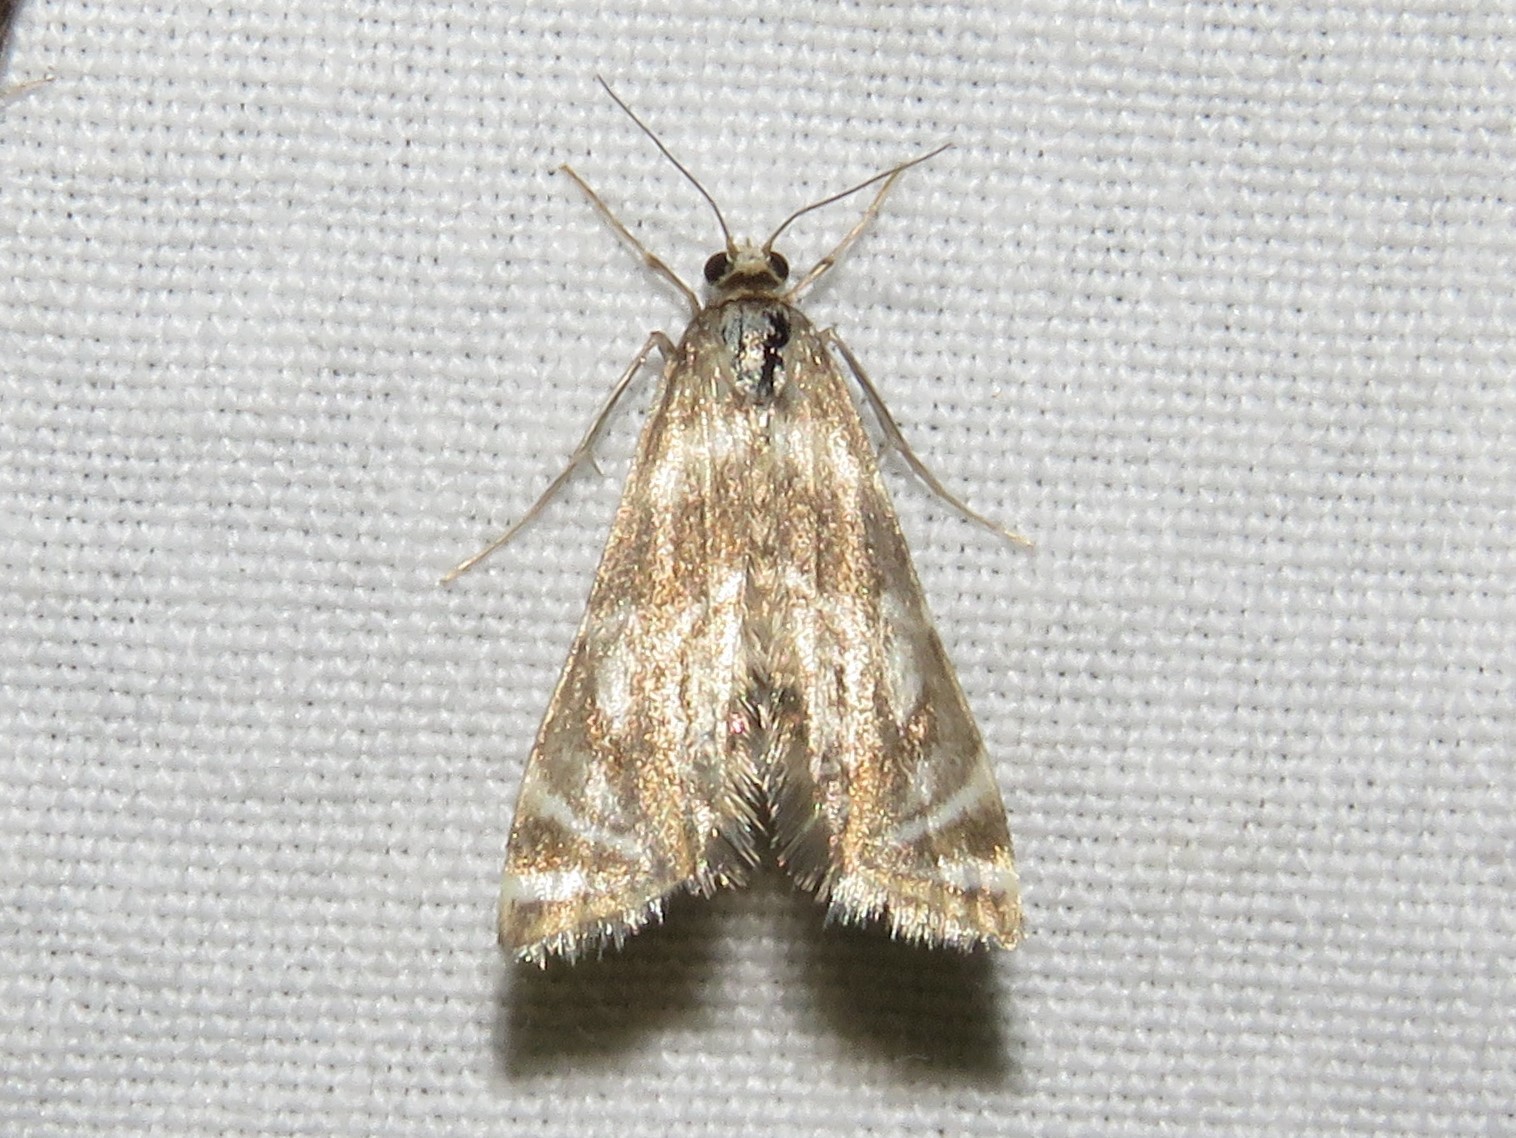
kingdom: Animalia
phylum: Arthropoda
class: Insecta
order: Lepidoptera
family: Crambidae
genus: Petrophila
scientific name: Petrophila canadensis
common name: Canadian petrophila
